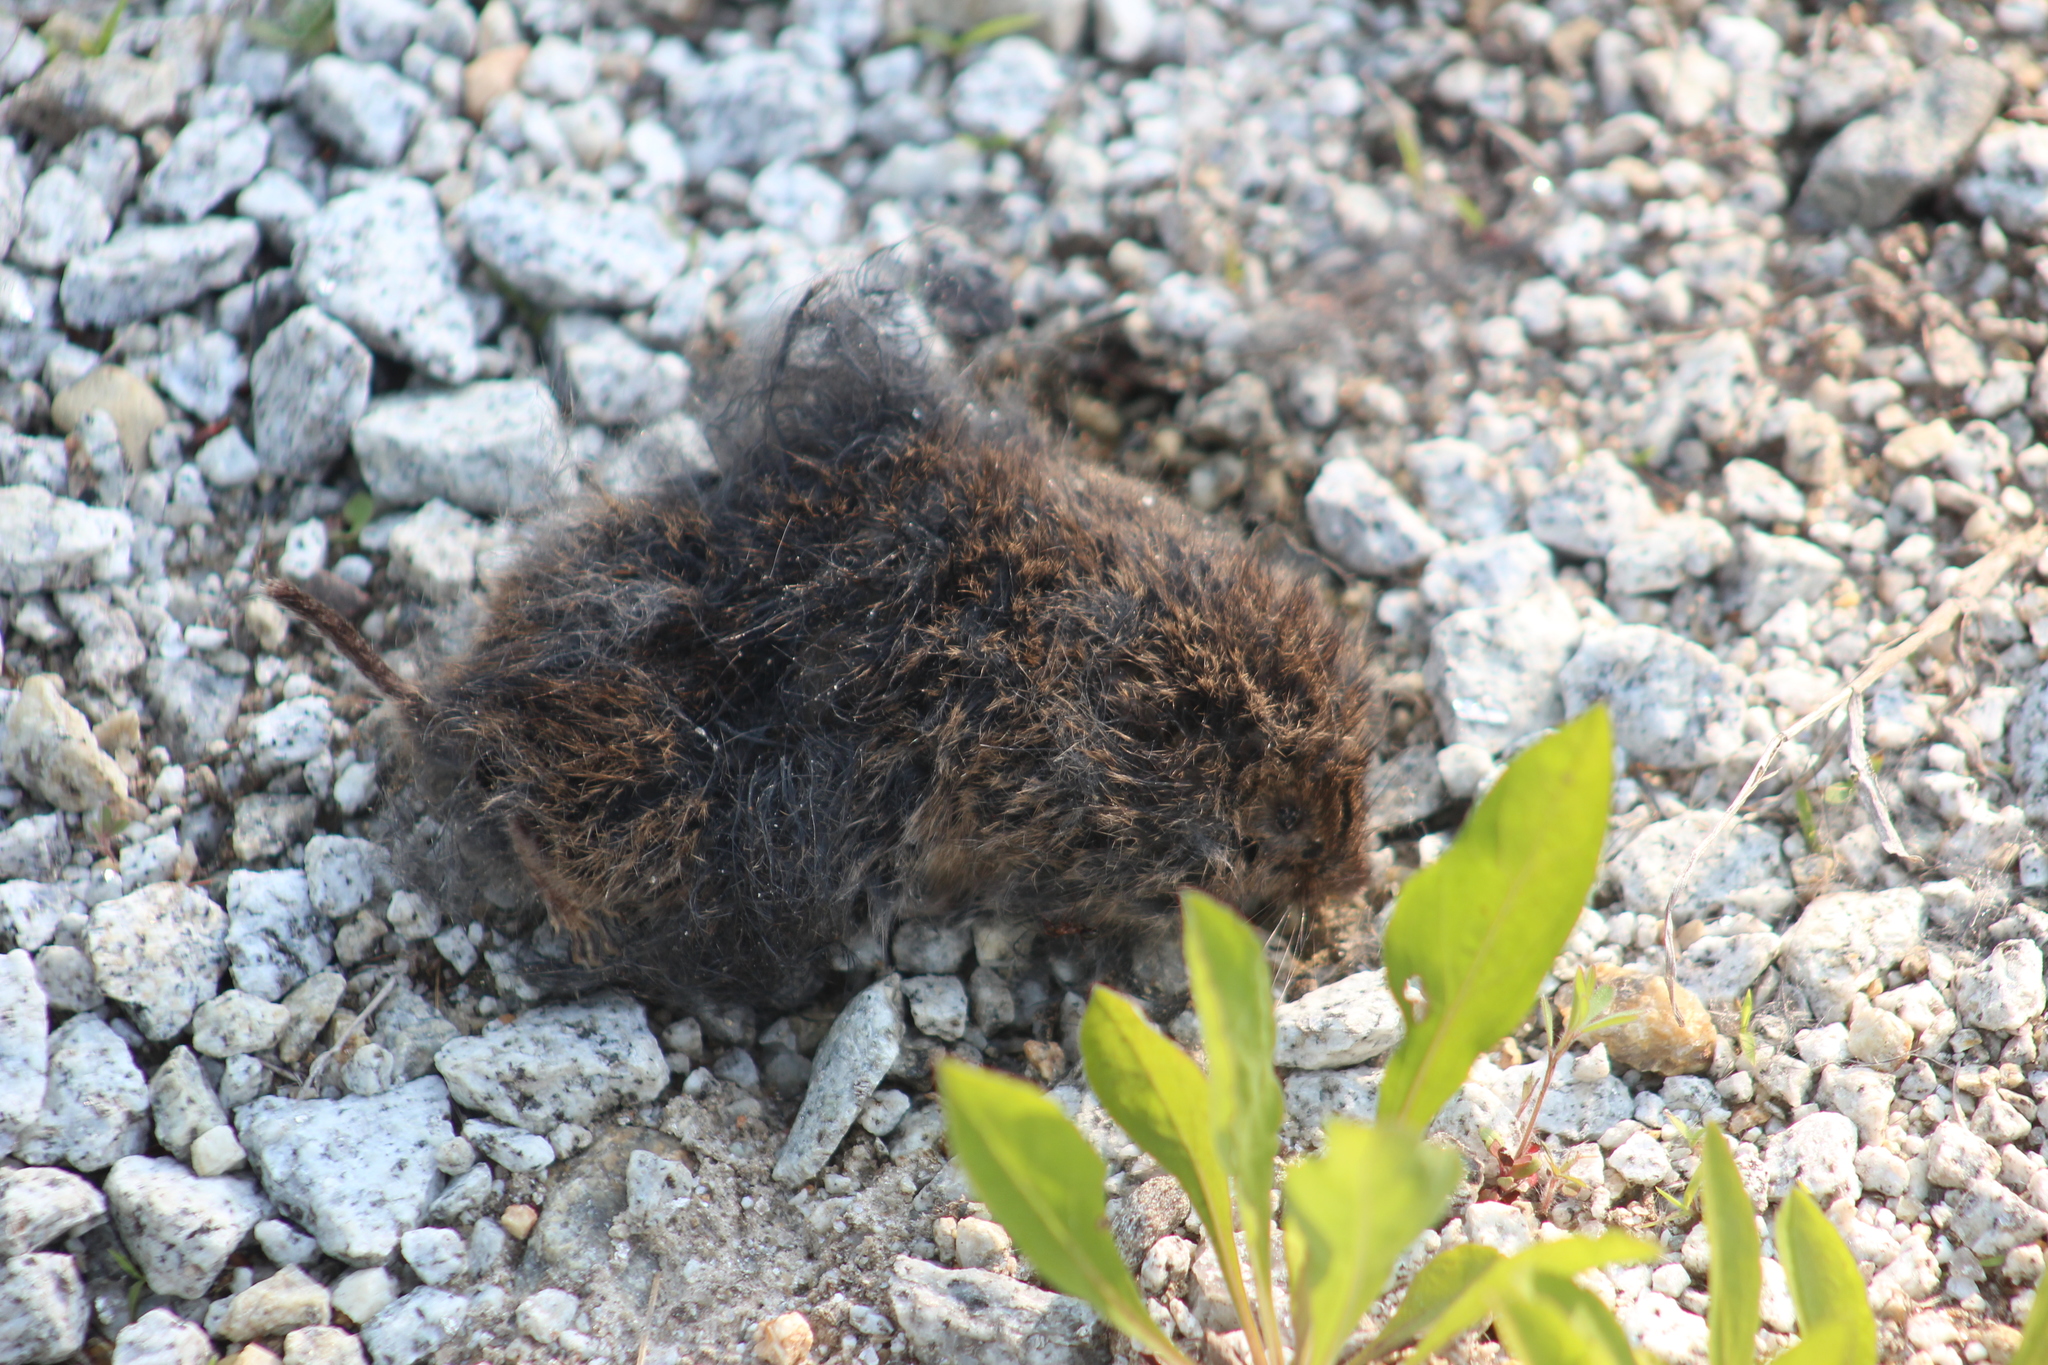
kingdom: Animalia
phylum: Chordata
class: Mammalia
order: Rodentia
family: Cricetidae
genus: Microtus
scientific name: Microtus pennsylvanicus
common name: Meadow vole
